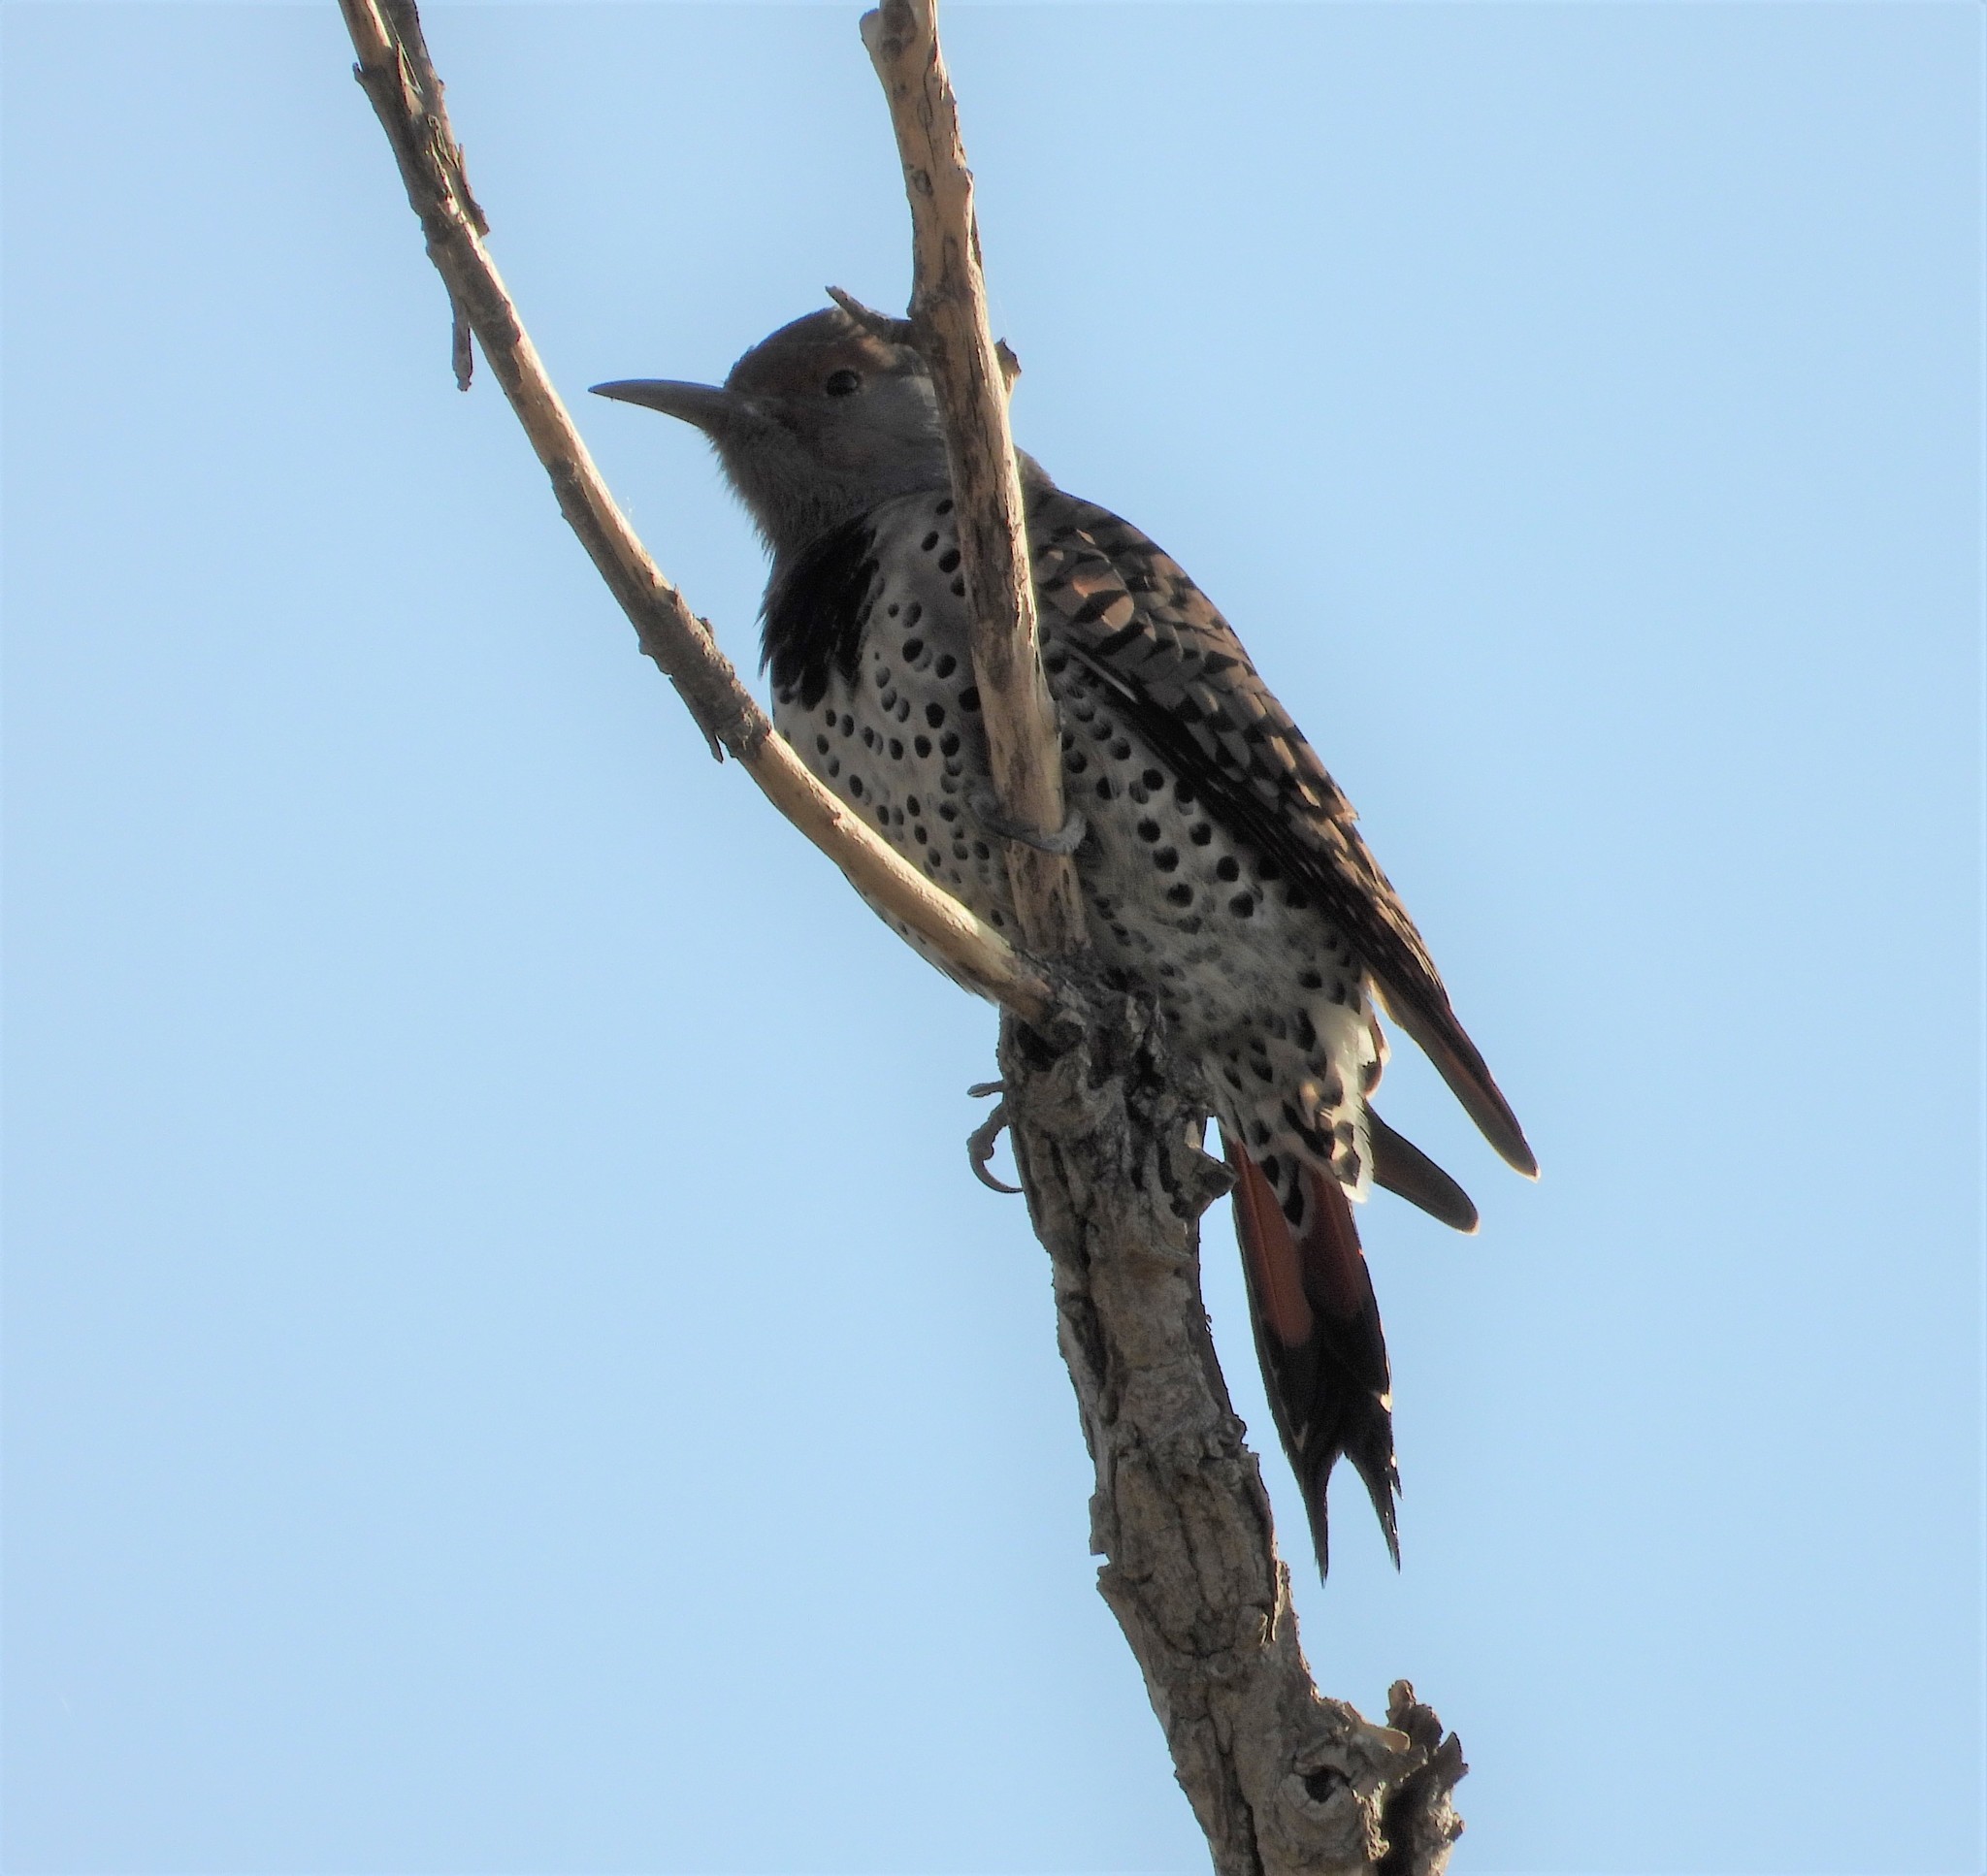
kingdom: Animalia
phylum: Chordata
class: Aves
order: Piciformes
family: Picidae
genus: Colaptes
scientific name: Colaptes auratus
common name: Northern flicker
